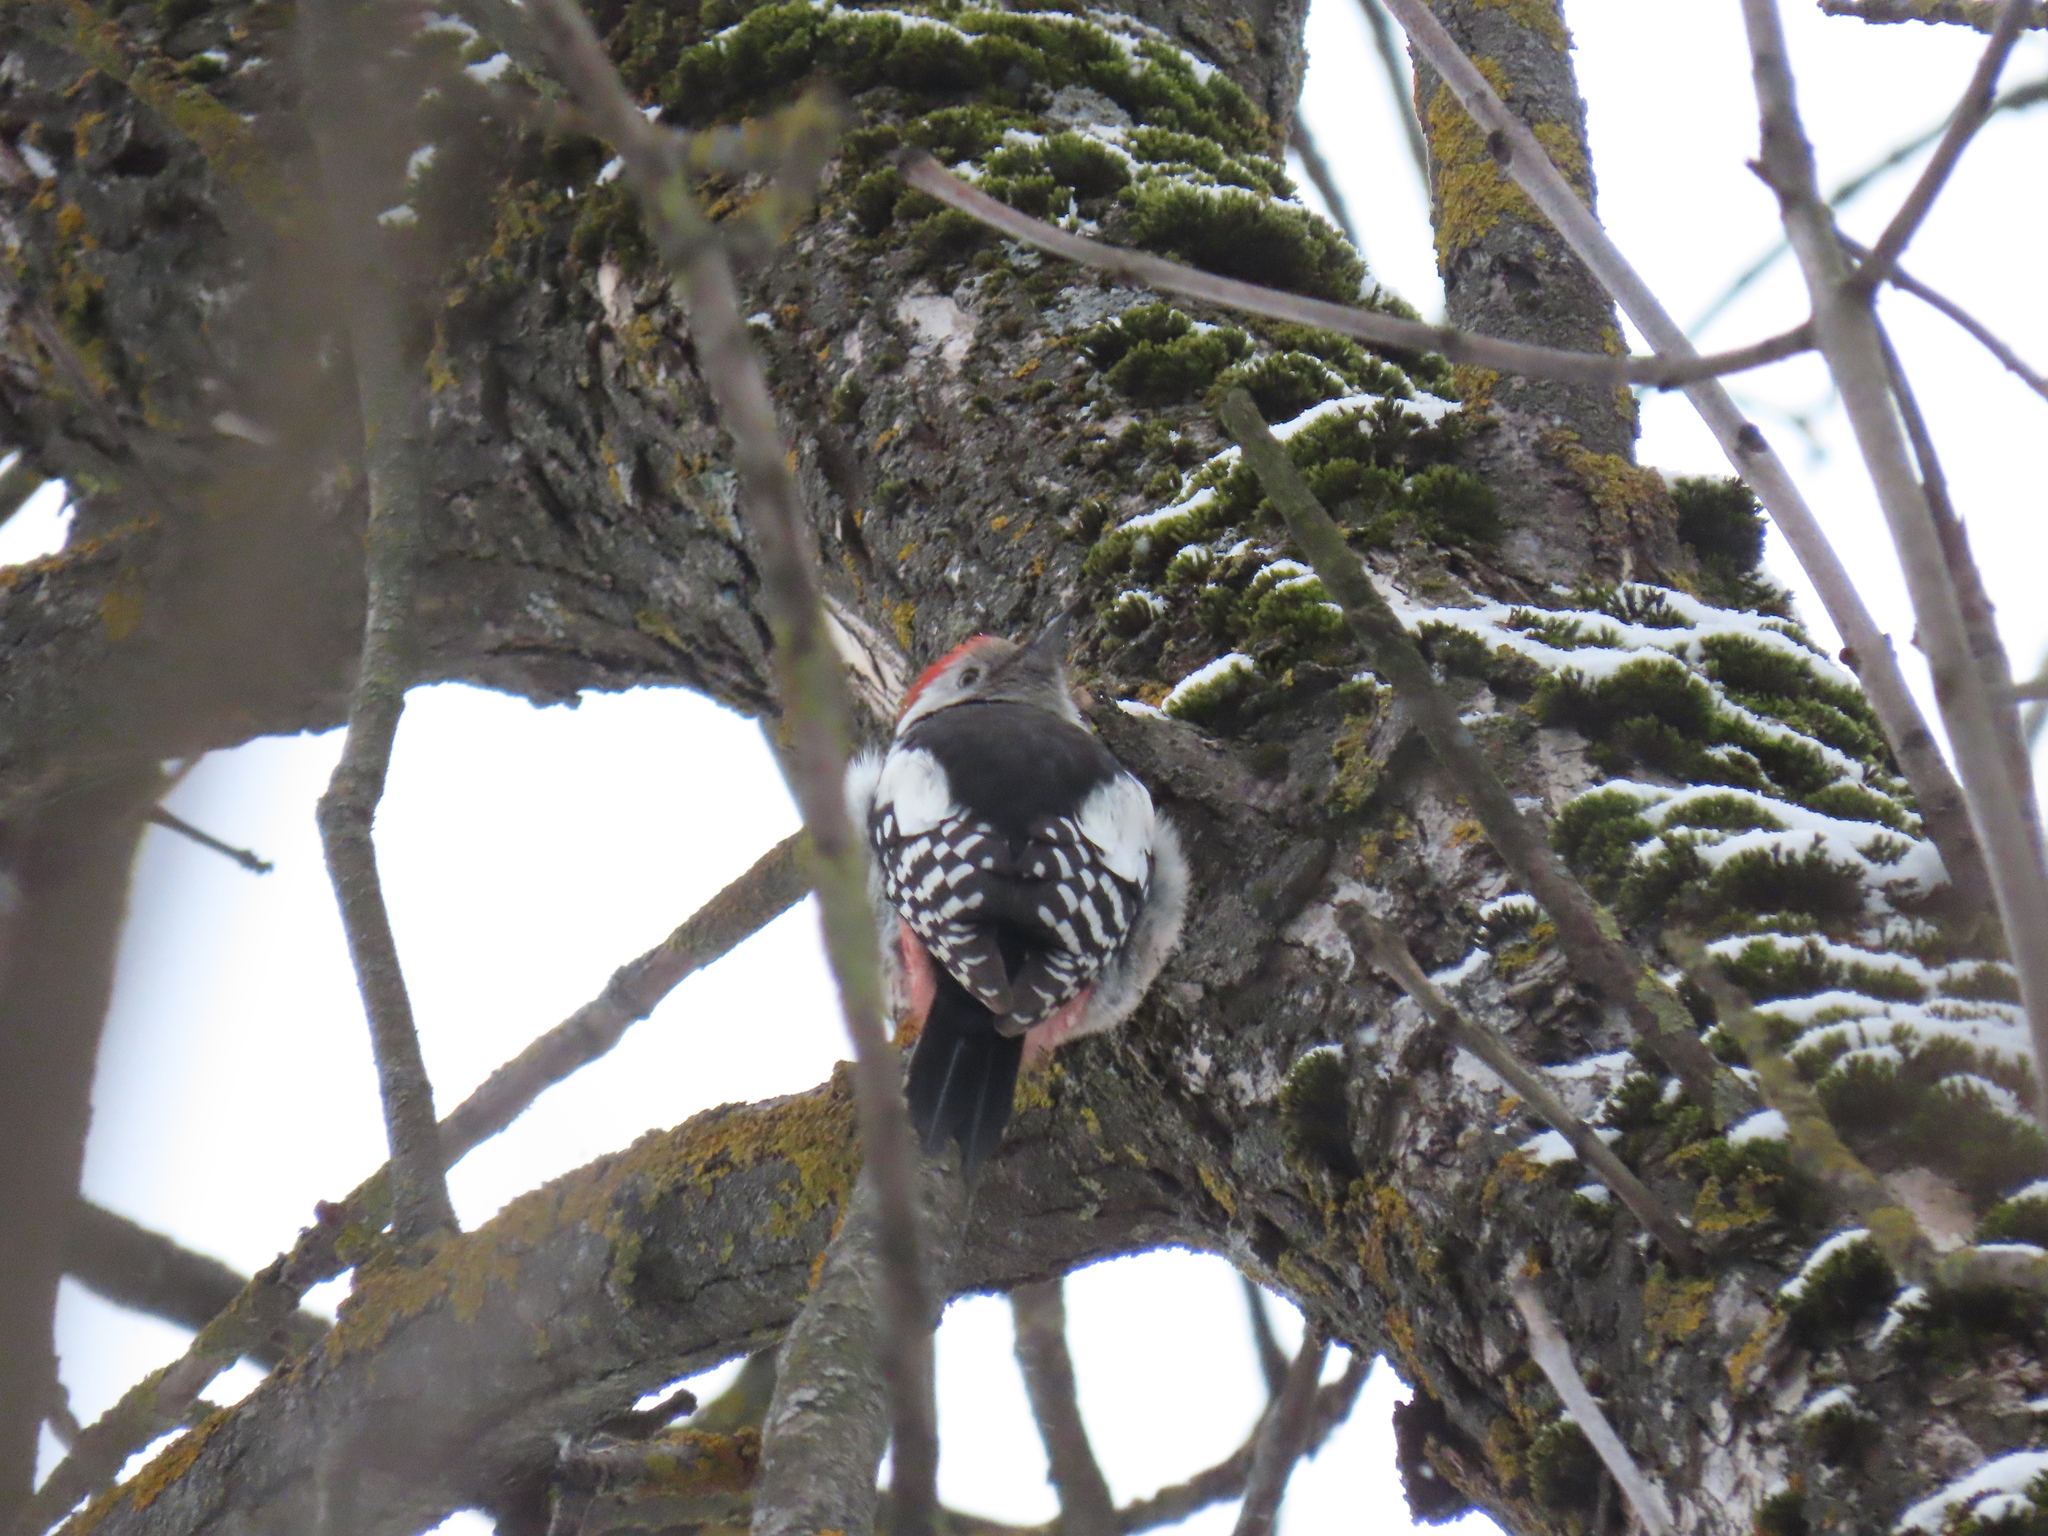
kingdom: Animalia
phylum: Chordata
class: Aves
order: Piciformes
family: Picidae
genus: Dendrocoptes
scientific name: Dendrocoptes medius
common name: Middle spotted woodpecker
